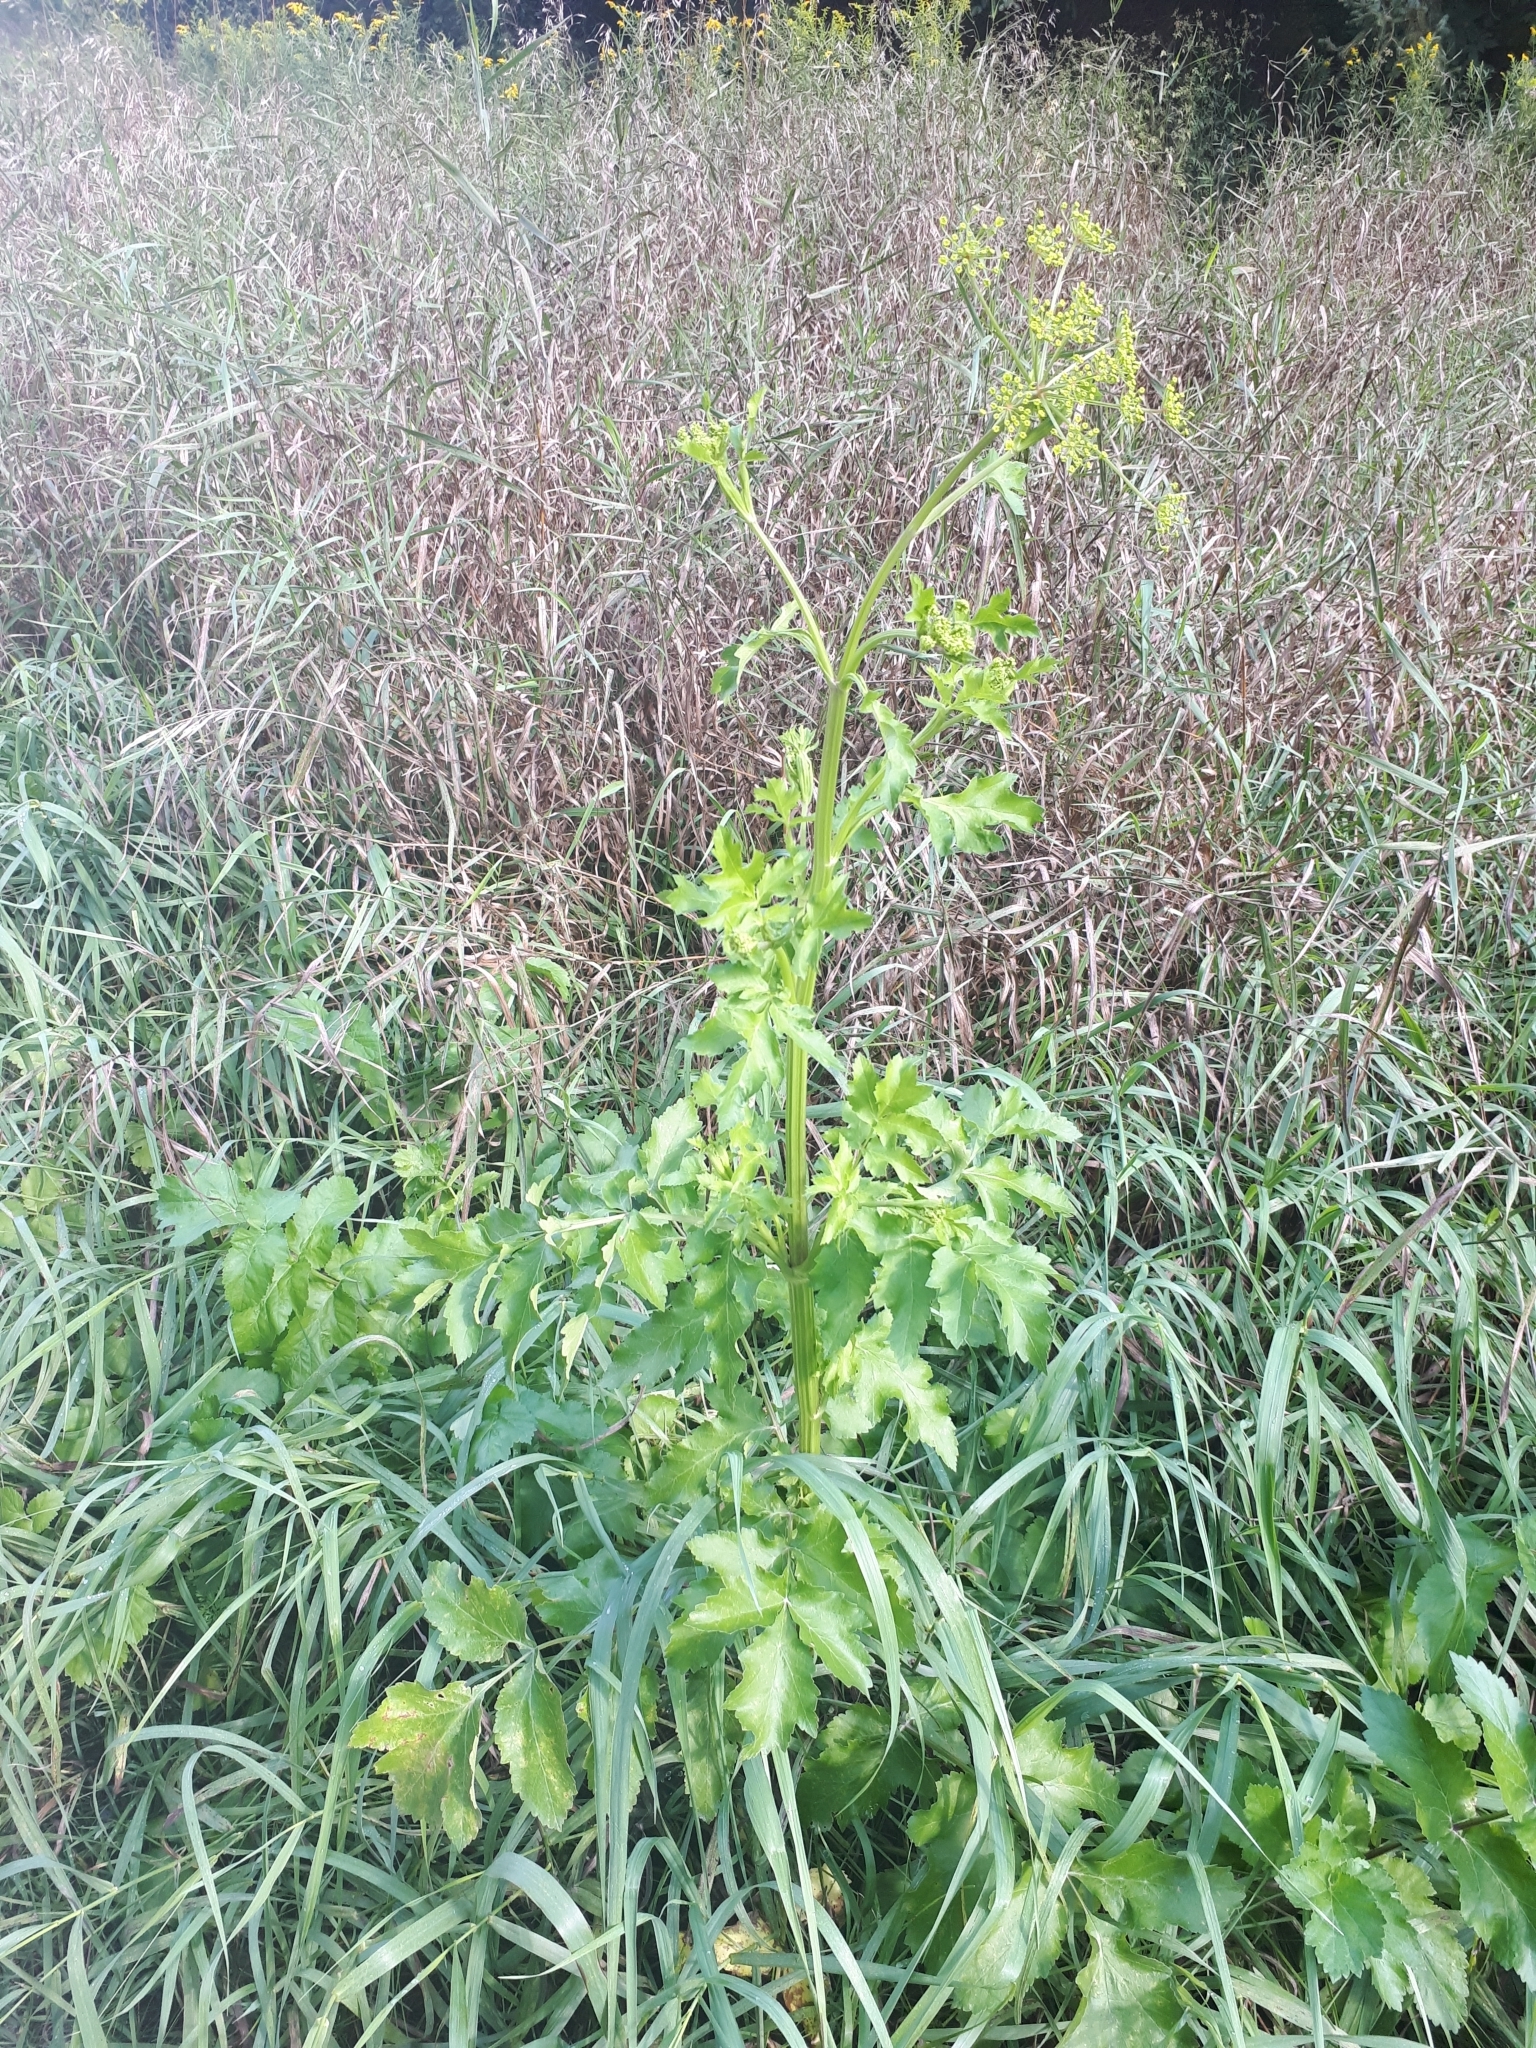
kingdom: Plantae
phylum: Tracheophyta
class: Magnoliopsida
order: Apiales
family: Apiaceae
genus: Pastinaca
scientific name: Pastinaca sativa
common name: Wild parsnip
